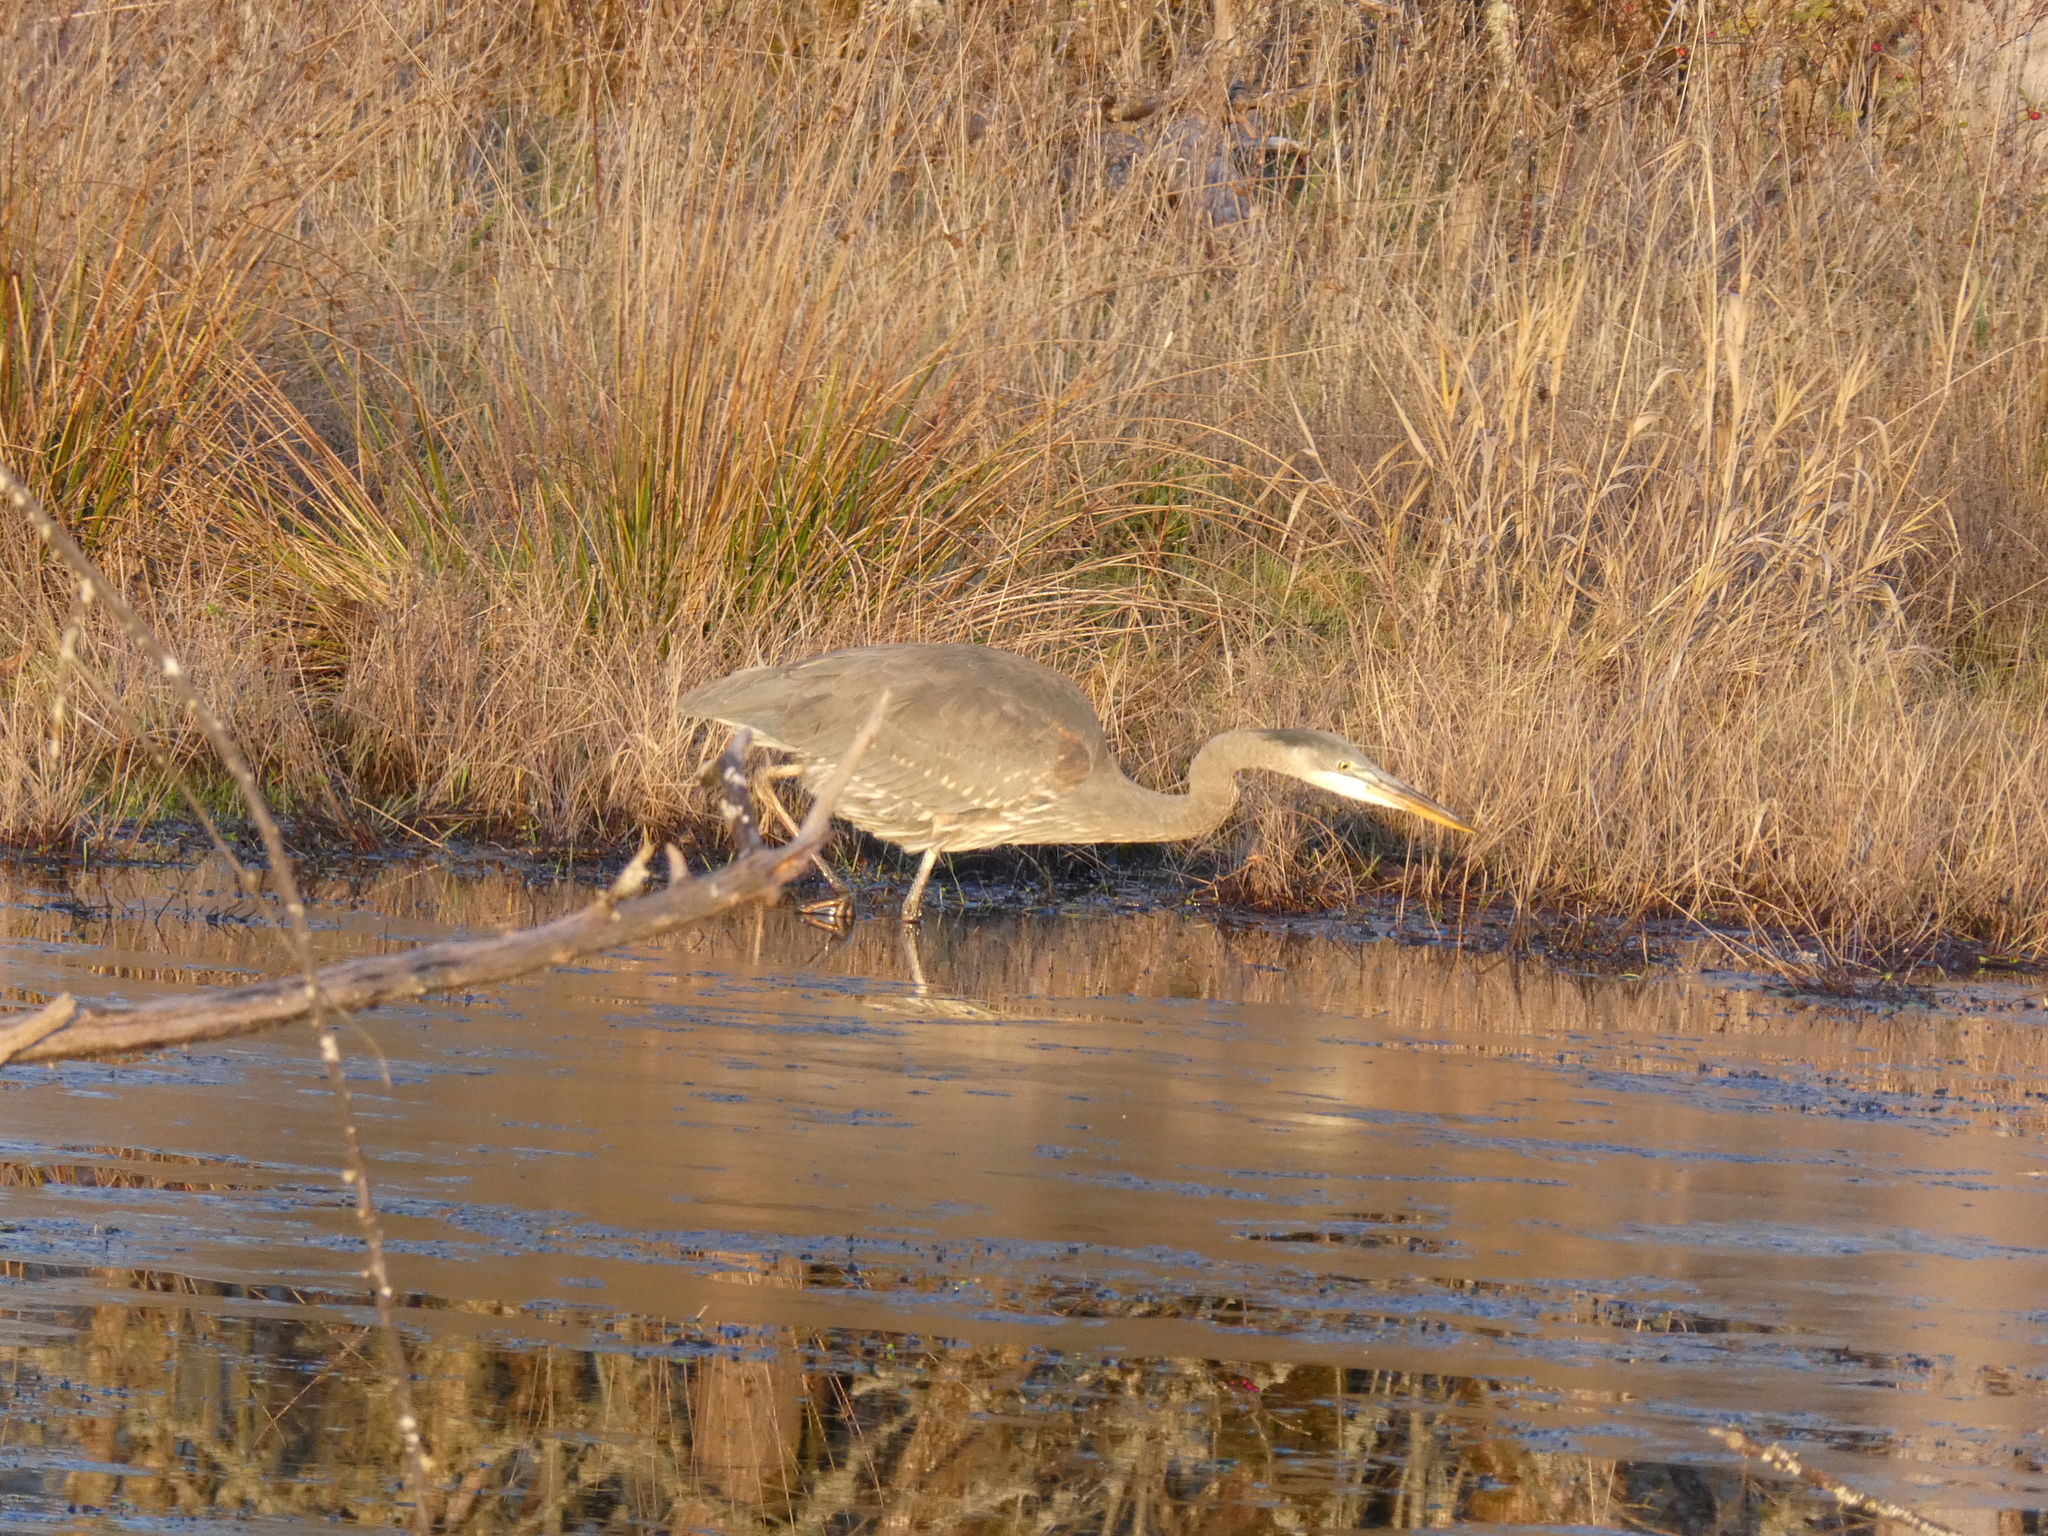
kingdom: Animalia
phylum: Chordata
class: Aves
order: Pelecaniformes
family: Ardeidae
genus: Ardea
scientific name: Ardea herodias
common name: Great blue heron
